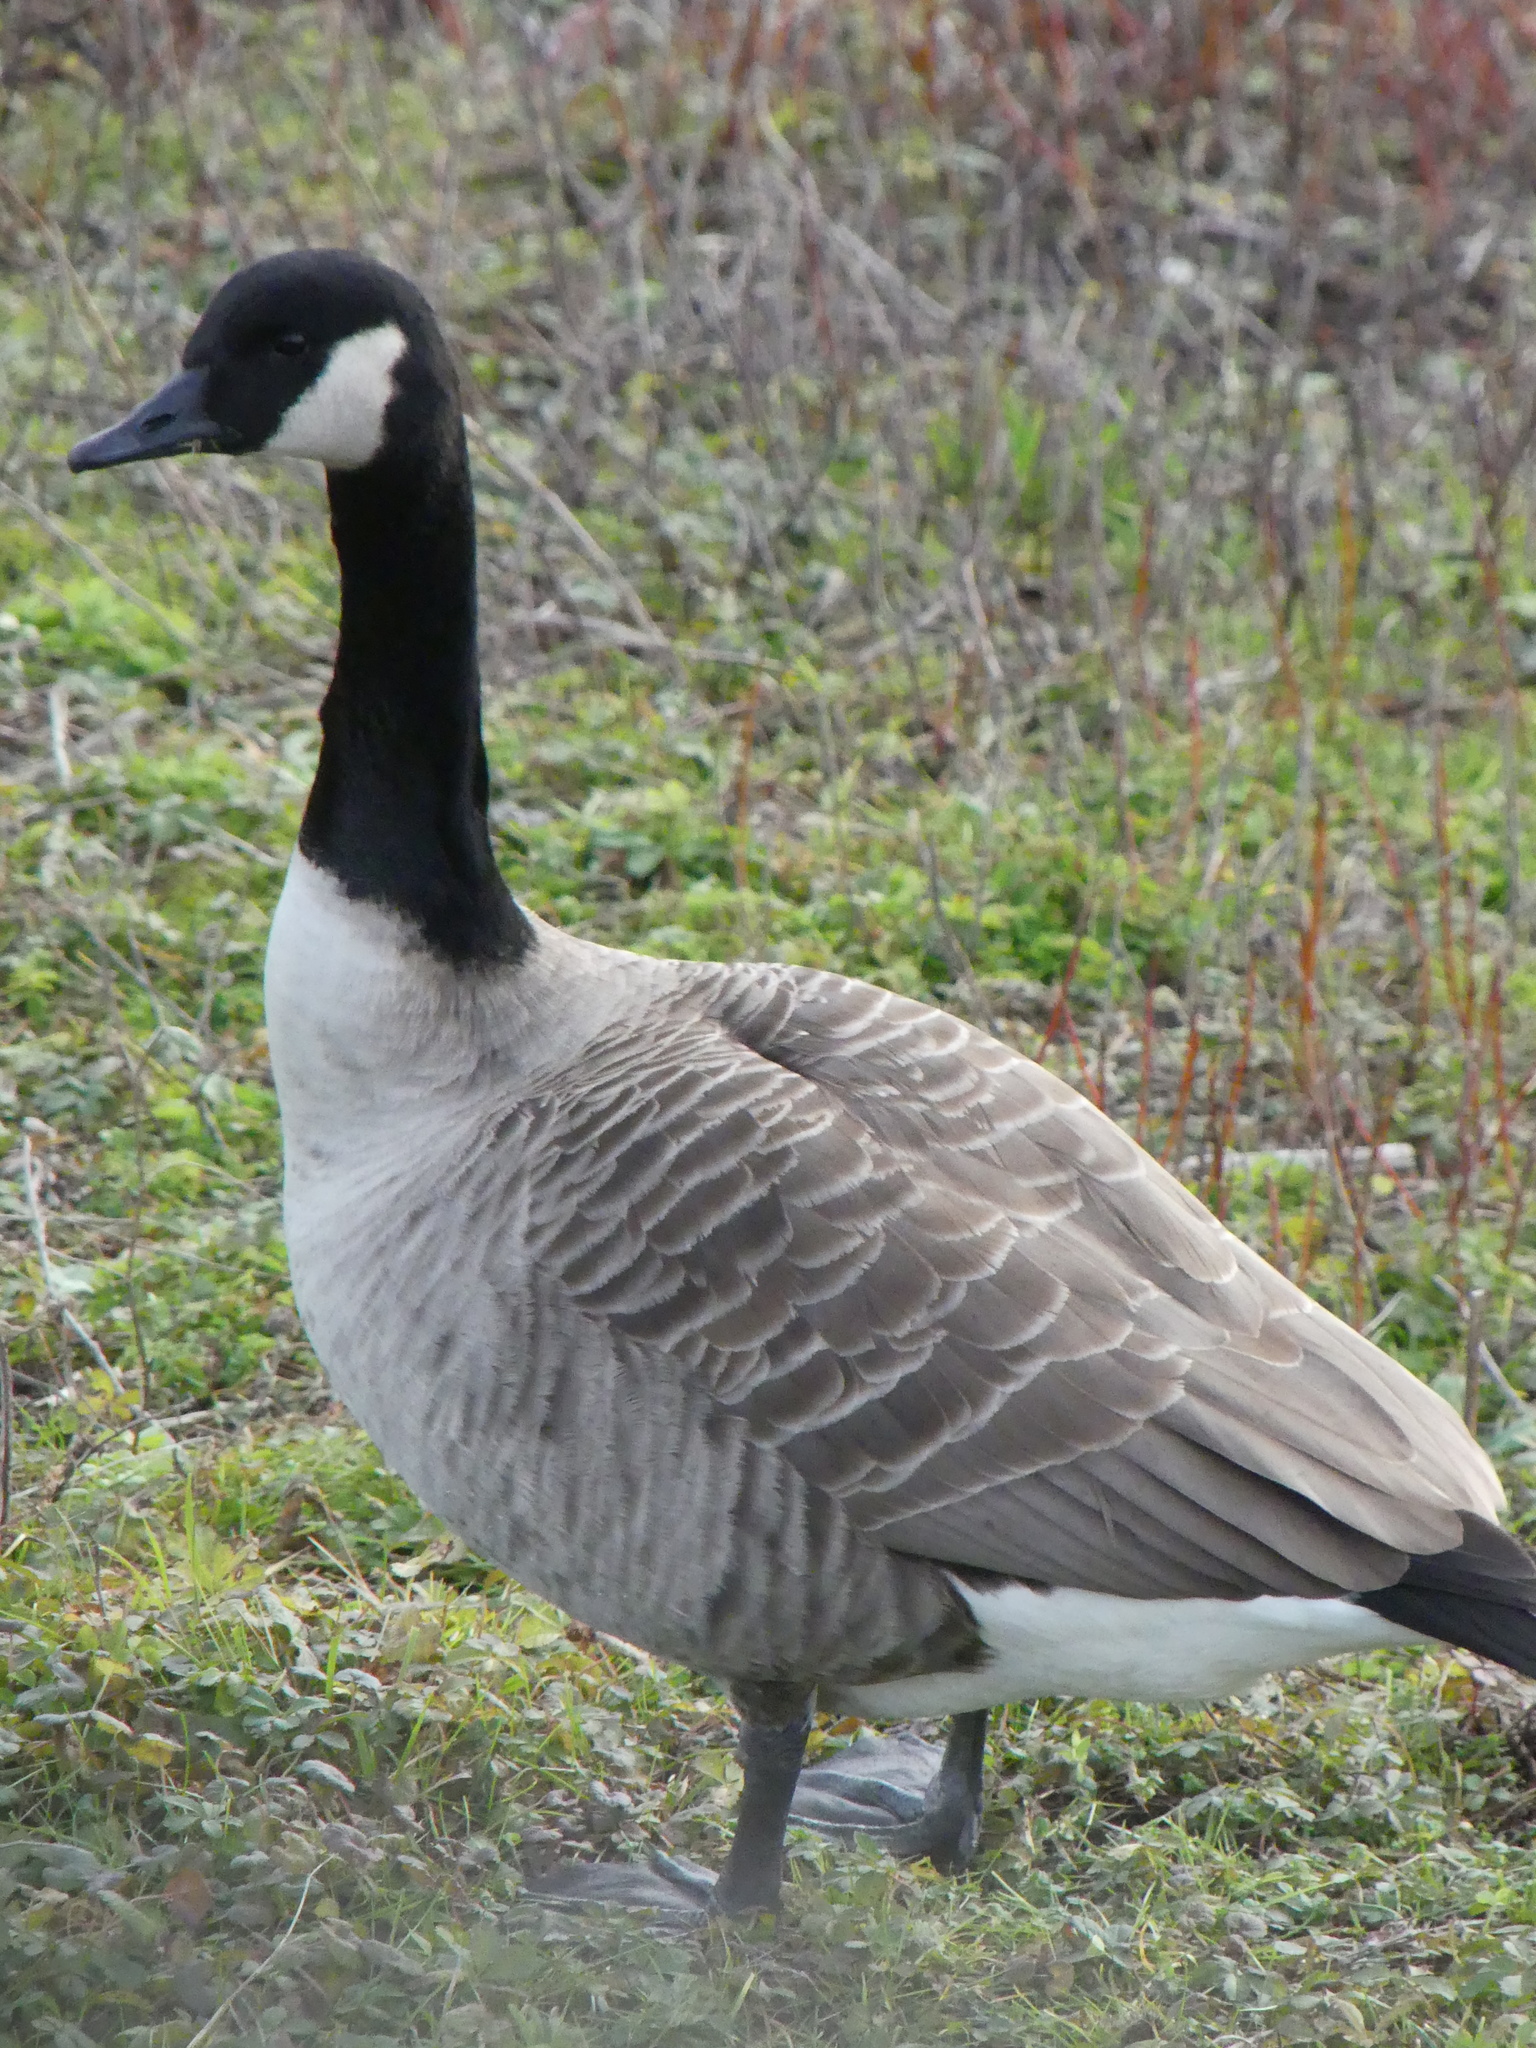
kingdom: Animalia
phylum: Chordata
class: Aves
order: Anseriformes
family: Anatidae
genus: Branta
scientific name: Branta canadensis
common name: Canada goose
